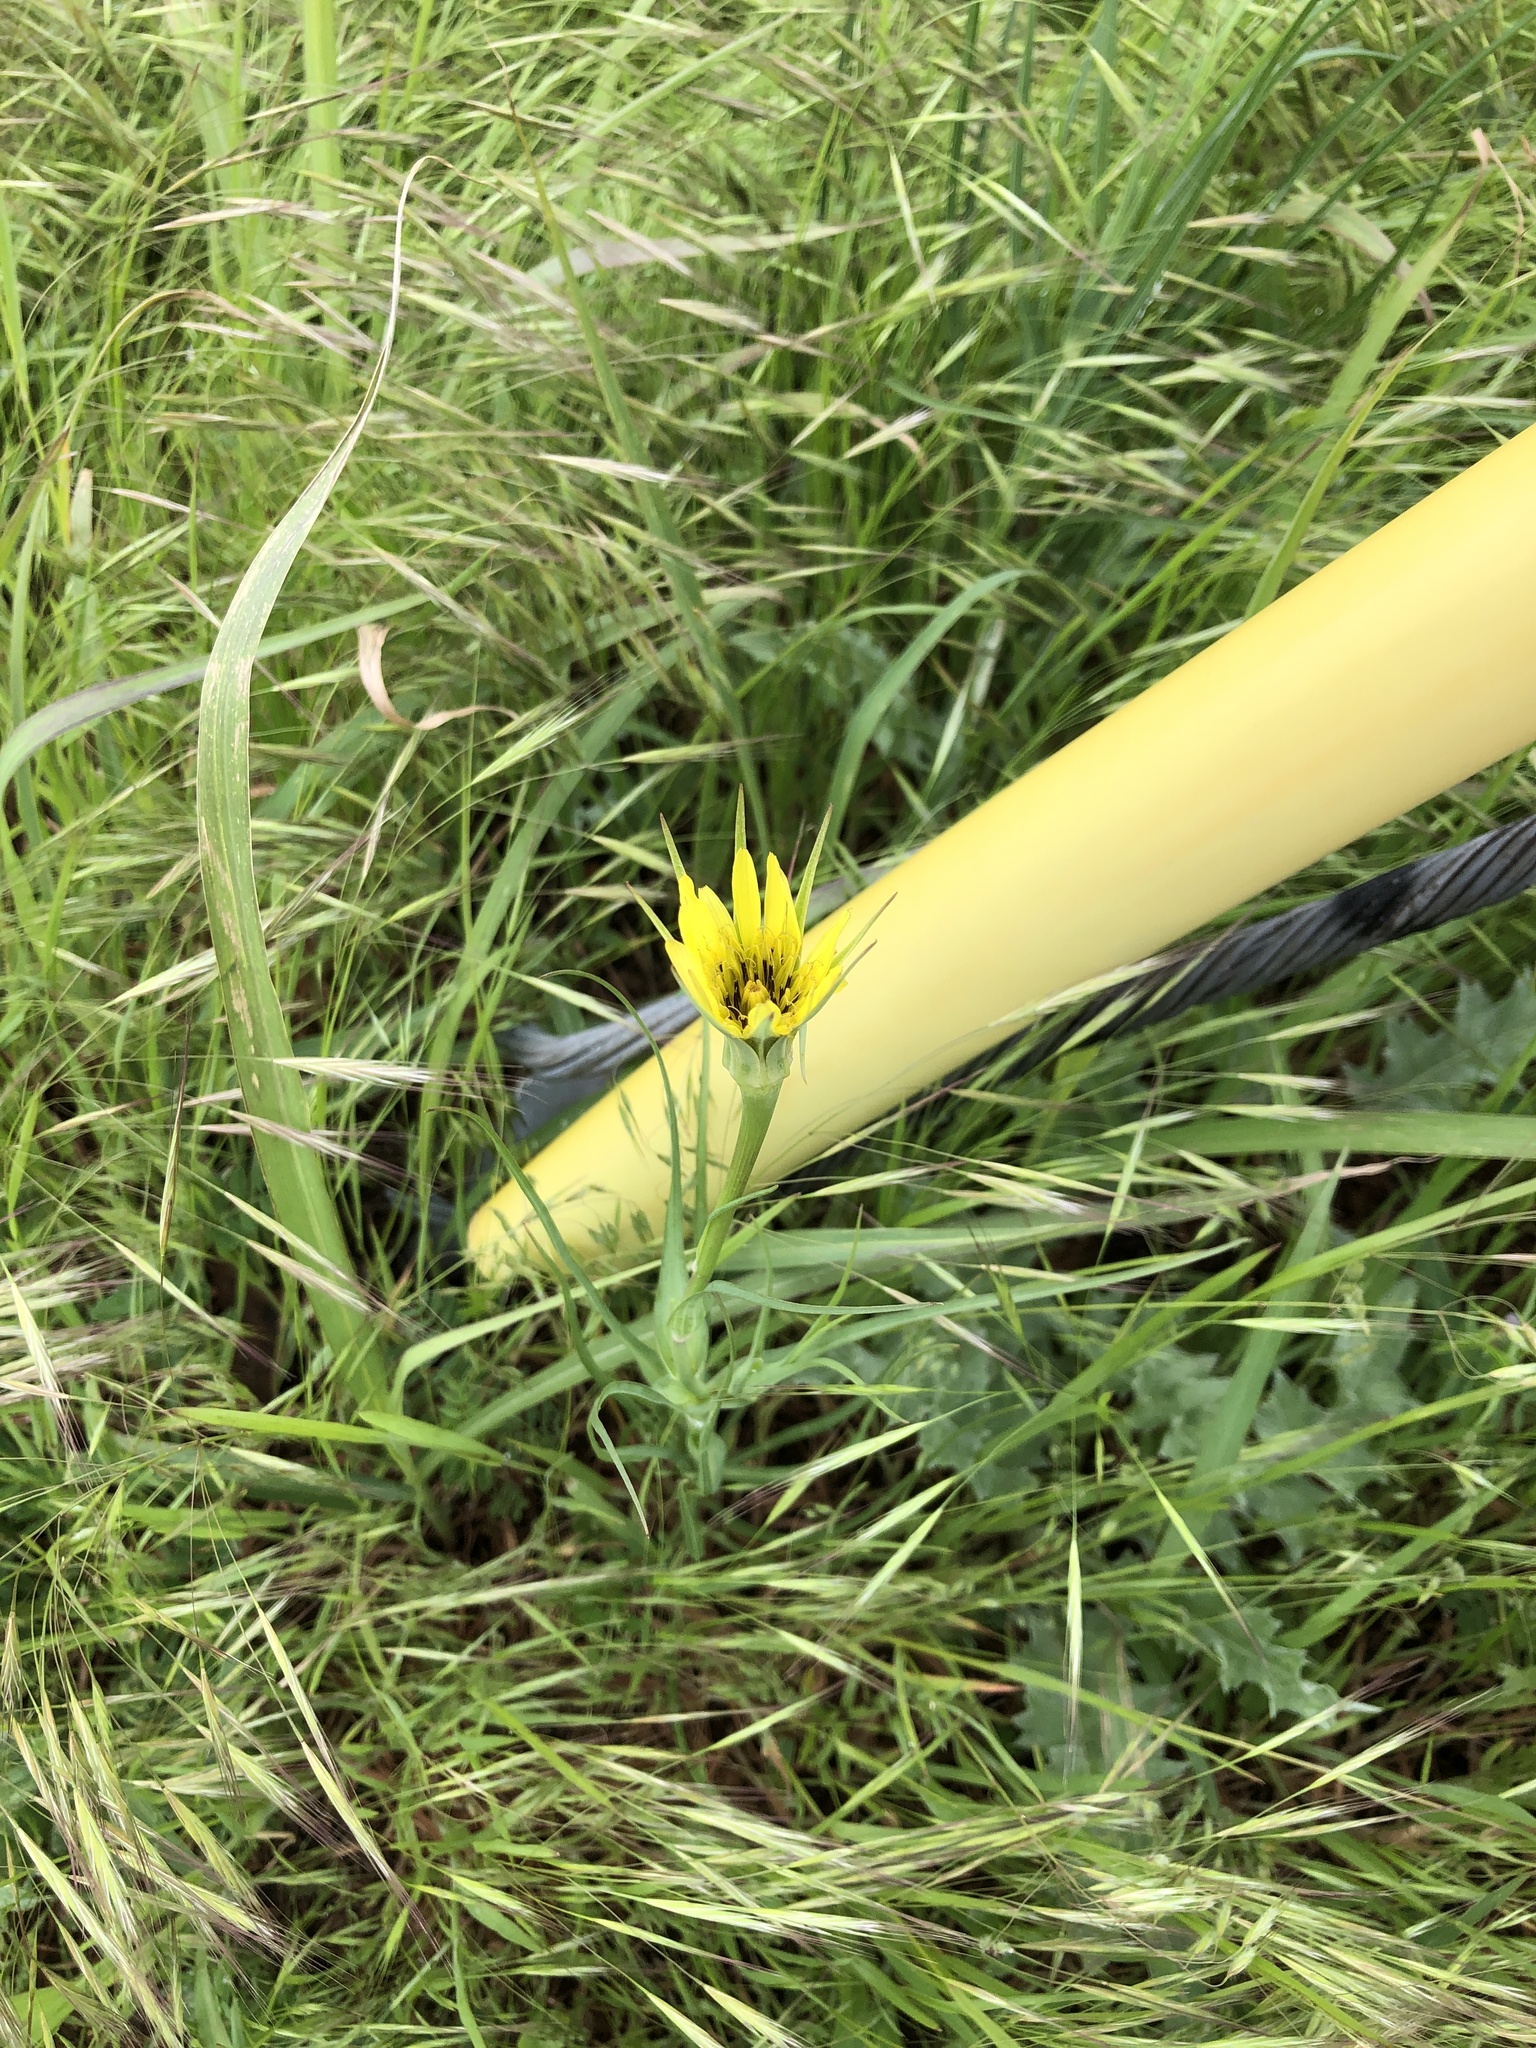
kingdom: Plantae
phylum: Tracheophyta
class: Magnoliopsida
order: Asterales
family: Asteraceae
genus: Tragopogon
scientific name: Tragopogon dubius
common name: Yellow salsify
